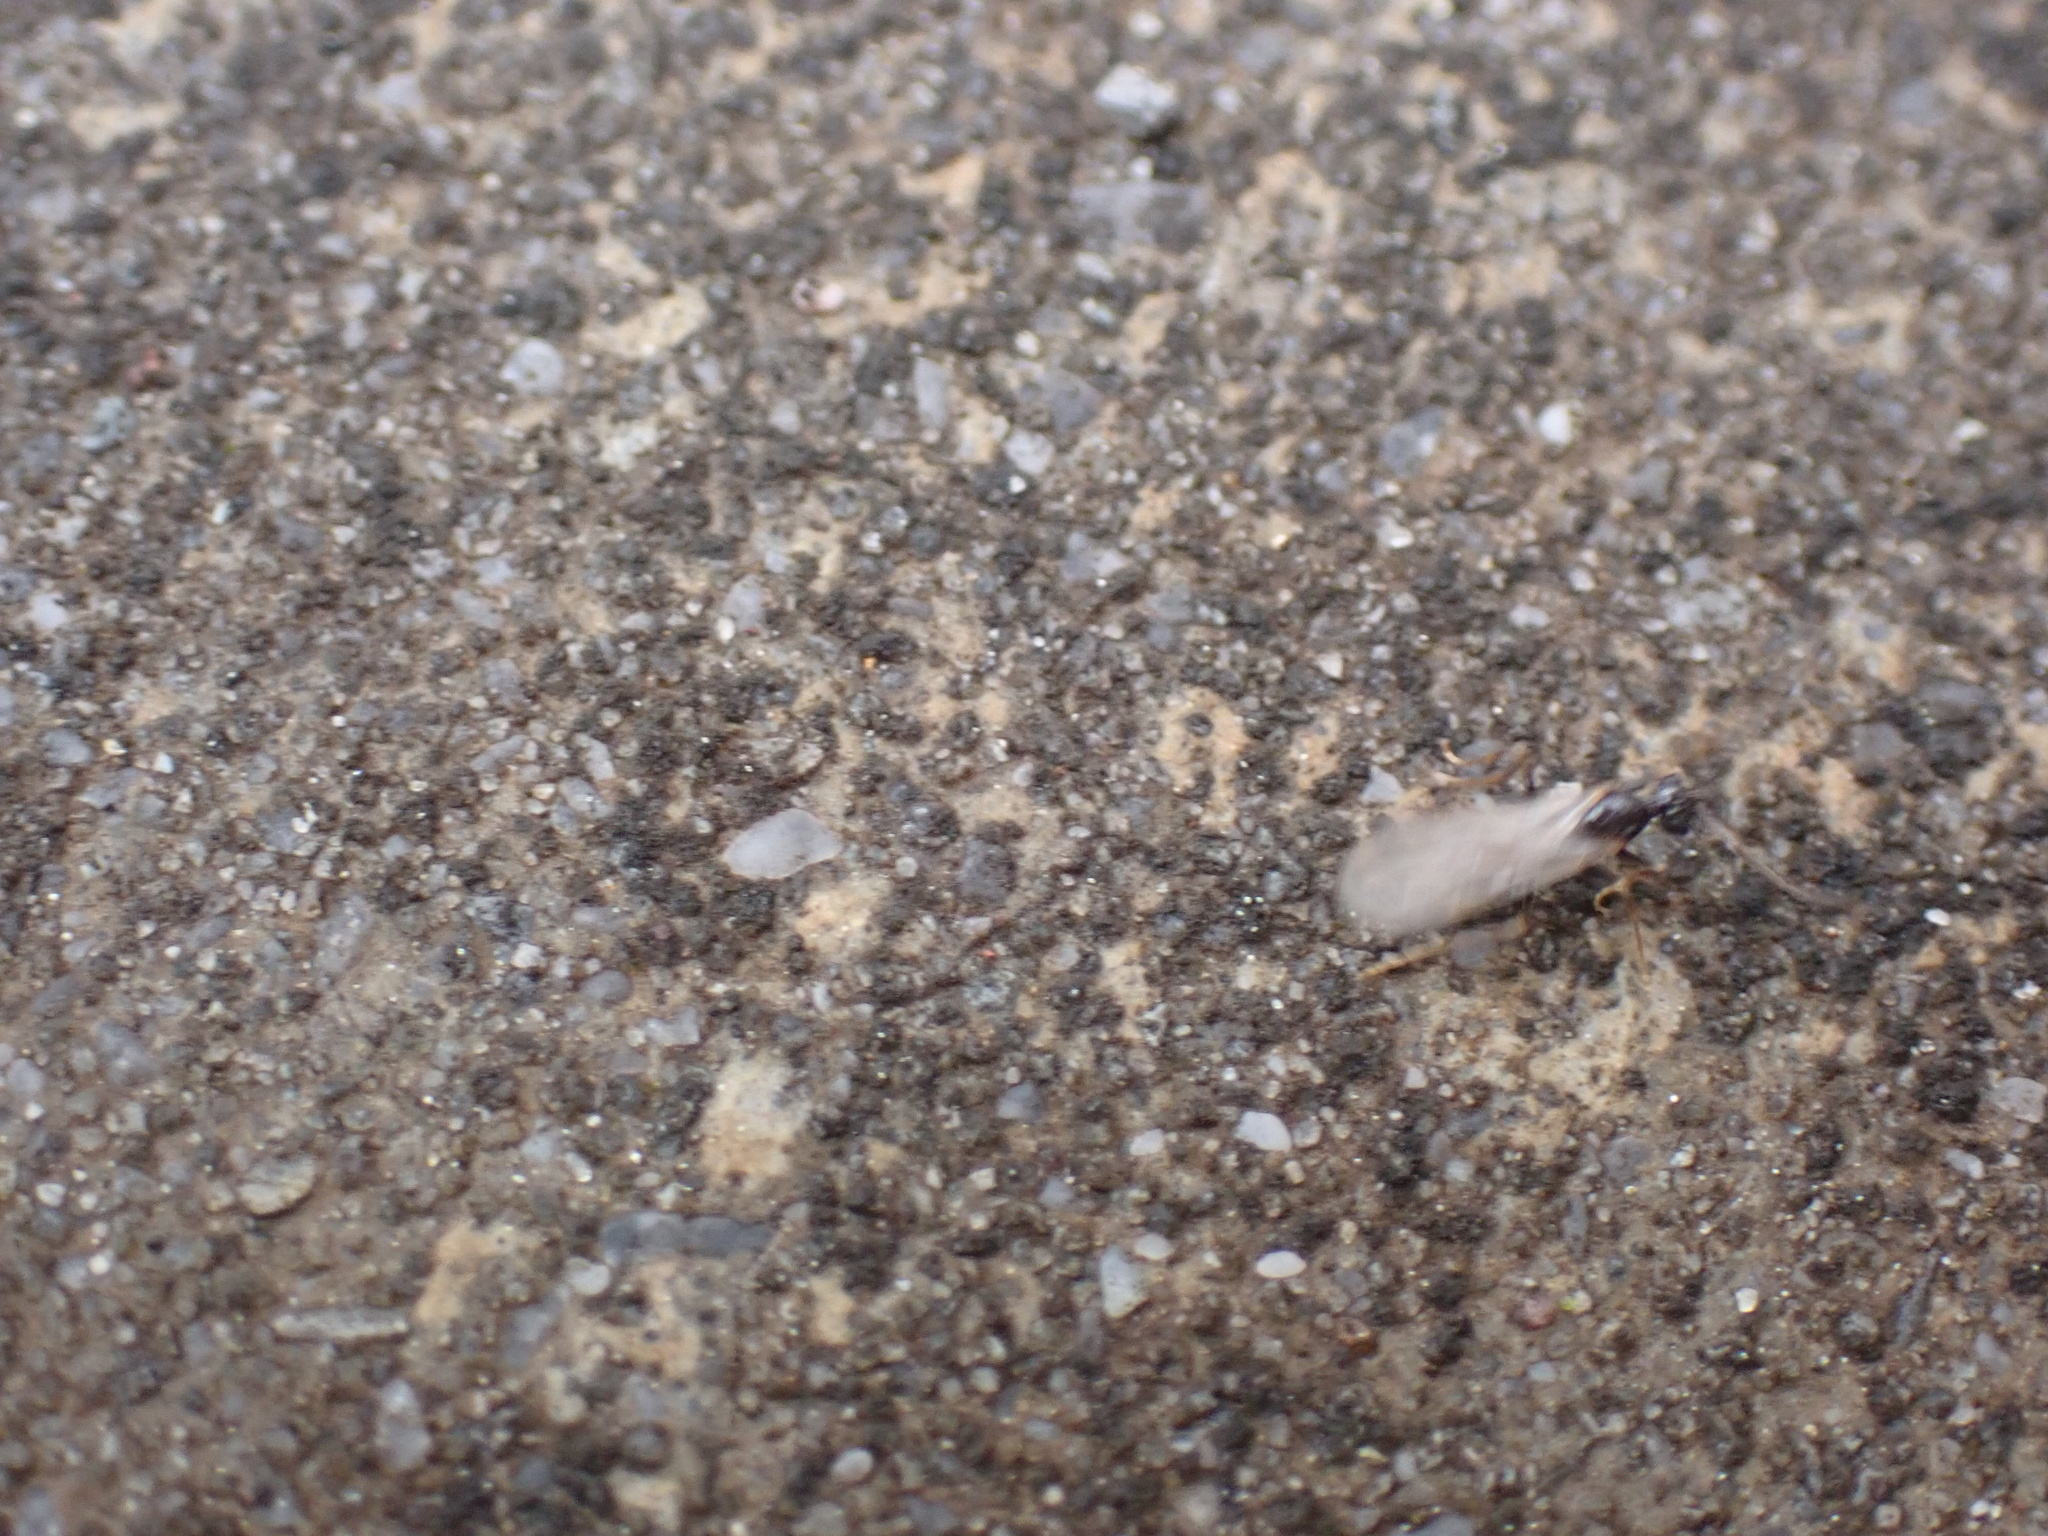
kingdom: Animalia
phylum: Arthropoda
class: Insecta
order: Hymenoptera
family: Formicidae
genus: Prenolepis
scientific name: Prenolepis imparis
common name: Small honey ant
